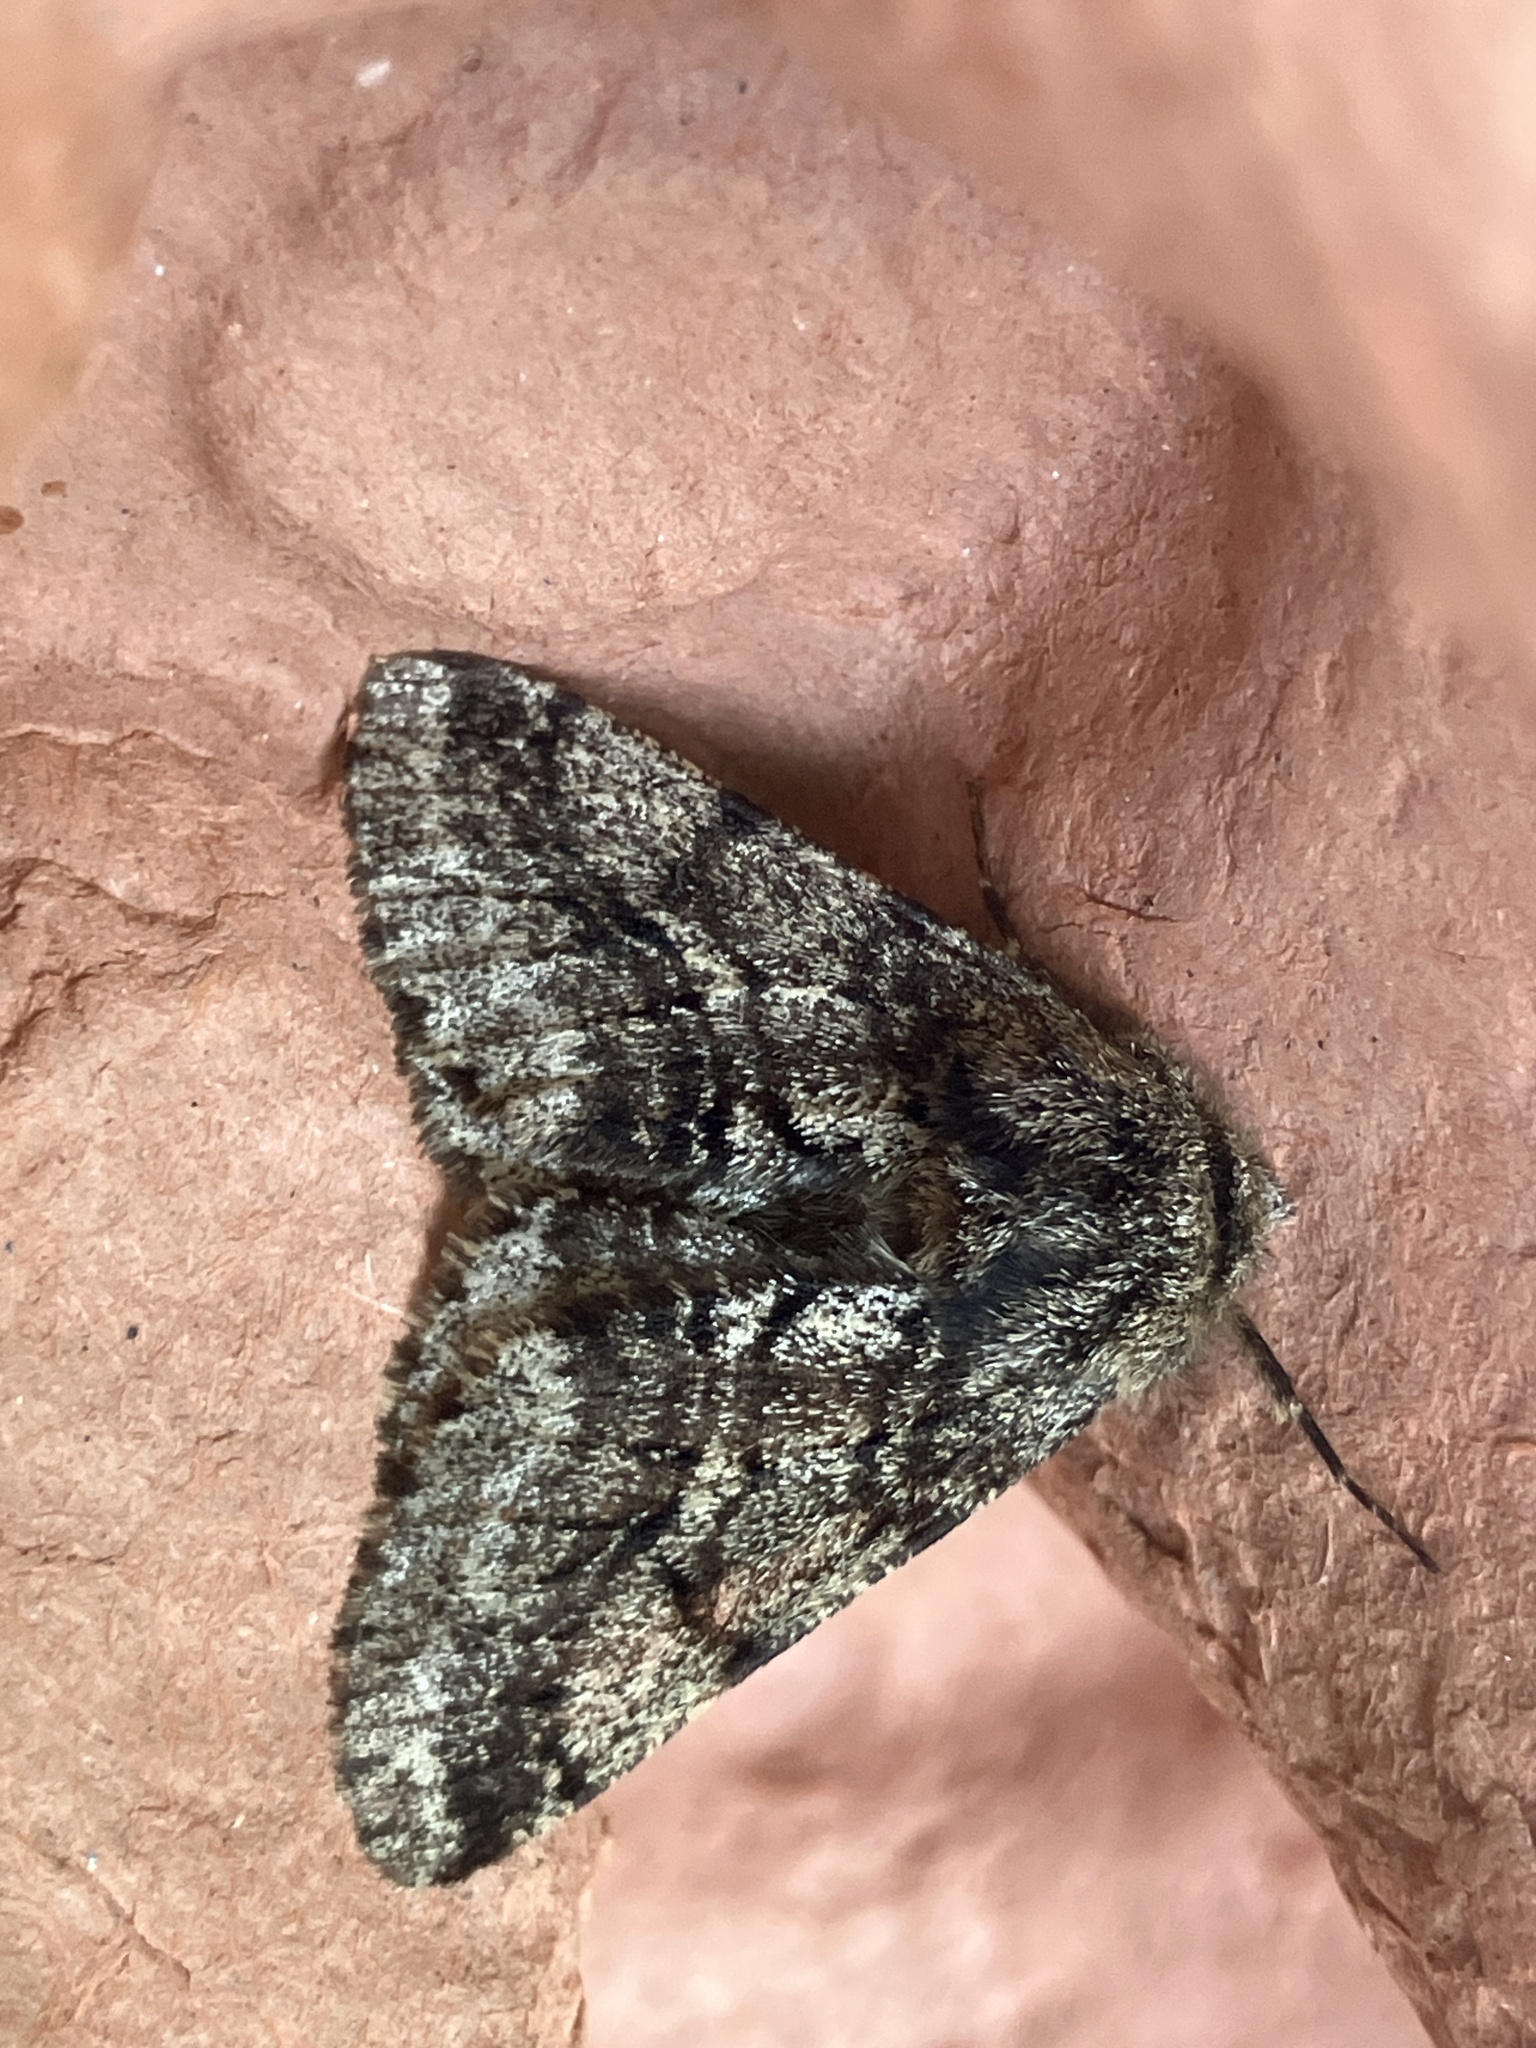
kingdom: Animalia
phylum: Arthropoda
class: Insecta
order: Lepidoptera
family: Geometridae
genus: Lycia
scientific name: Lycia hirtaria
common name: Brindled beauty
